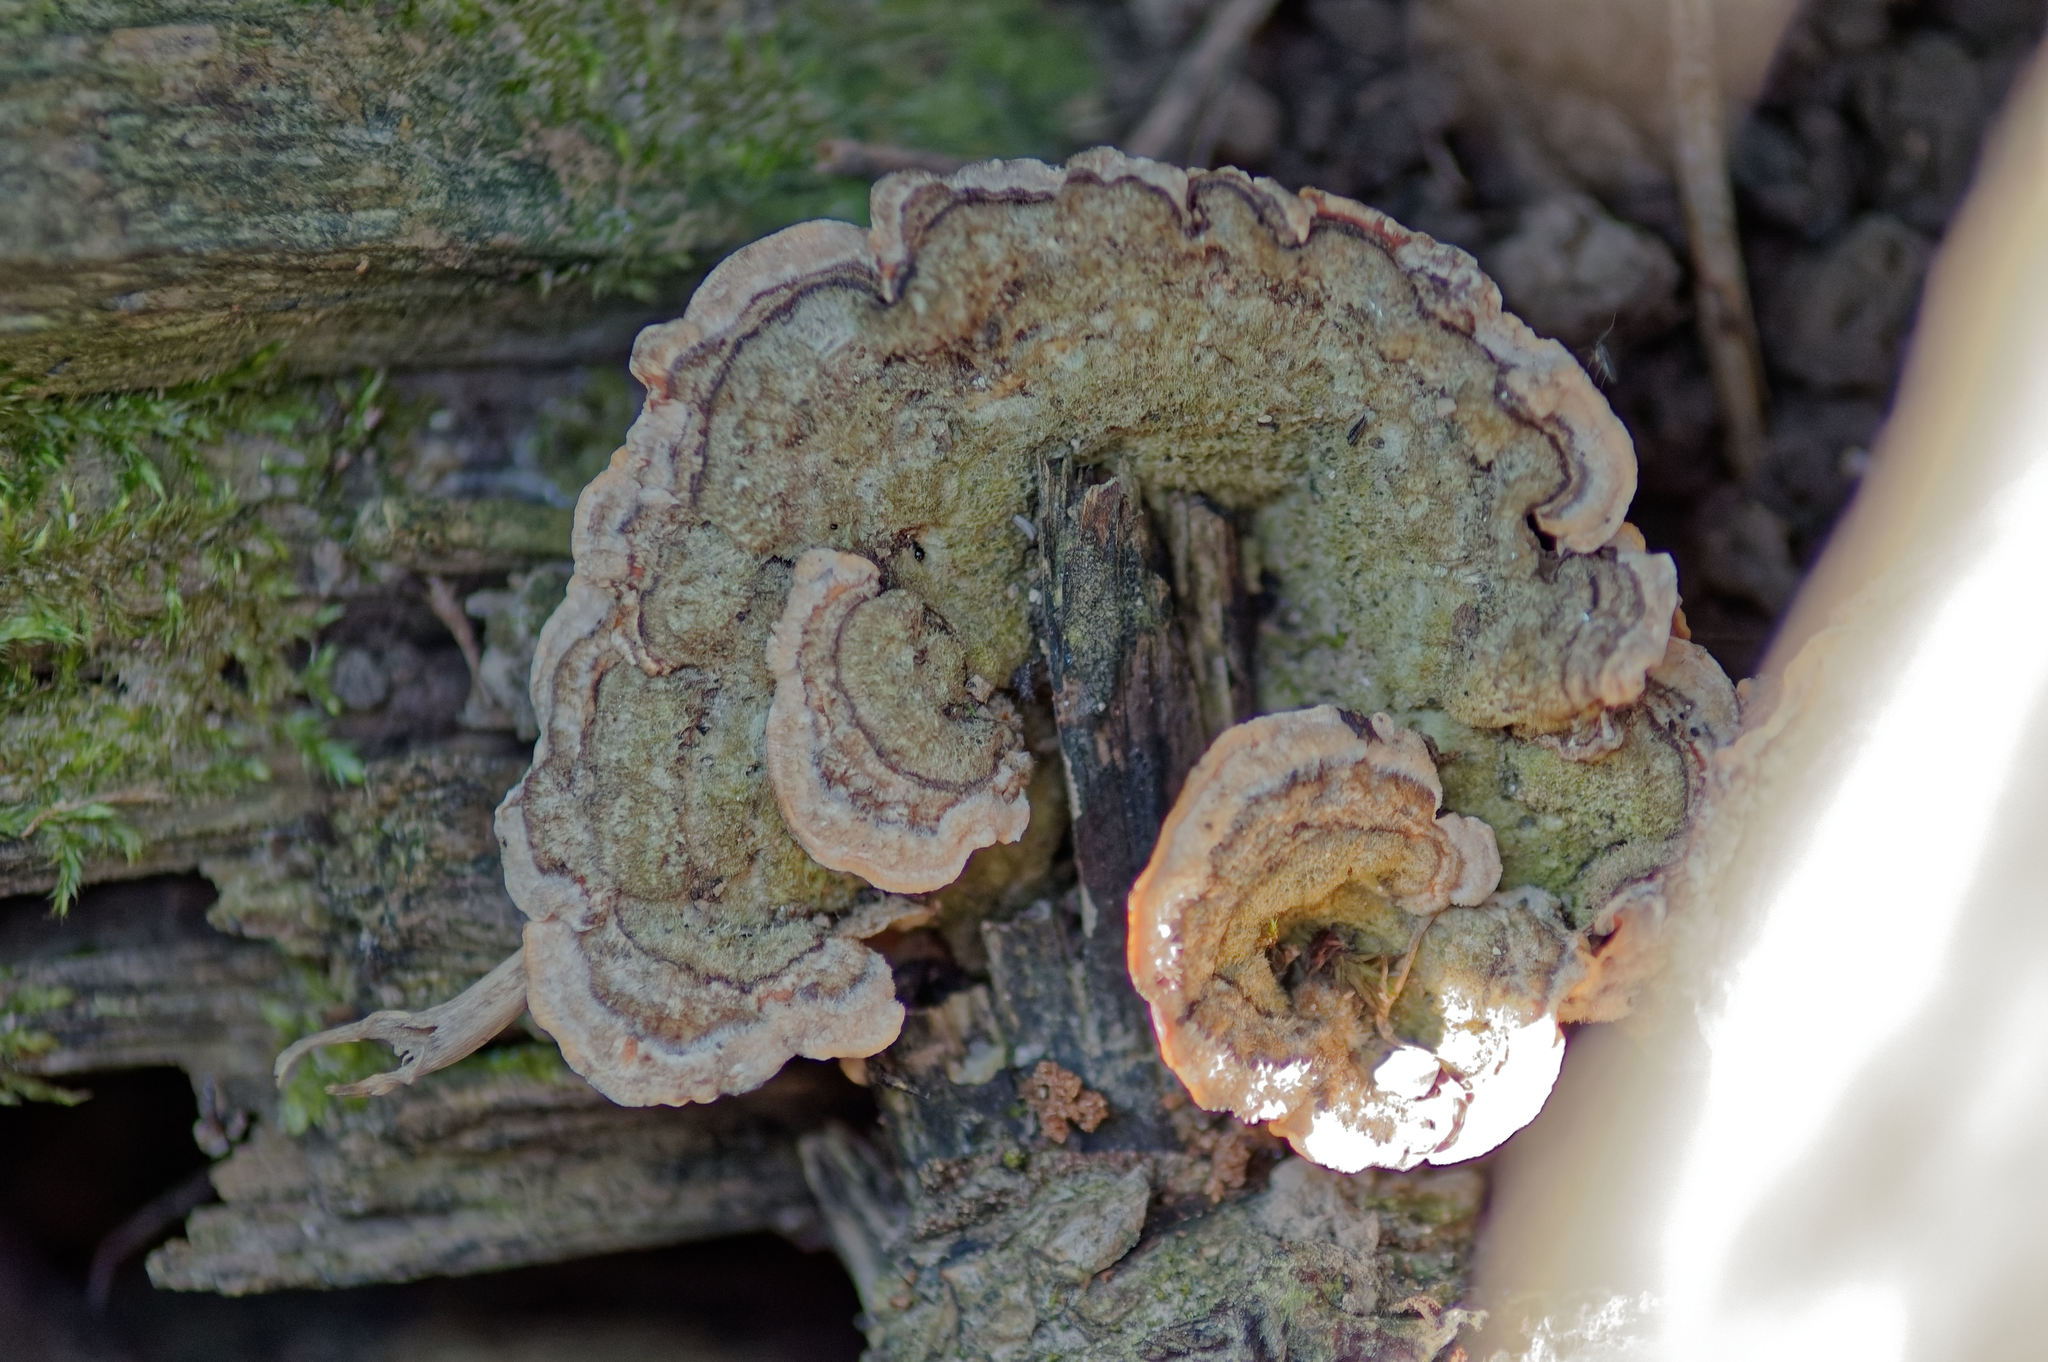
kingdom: Fungi
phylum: Basidiomycota
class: Agaricomycetes
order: Polyporales
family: Cerrenaceae
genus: Cerrena
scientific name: Cerrena unicolor
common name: Mossy maze polypore
